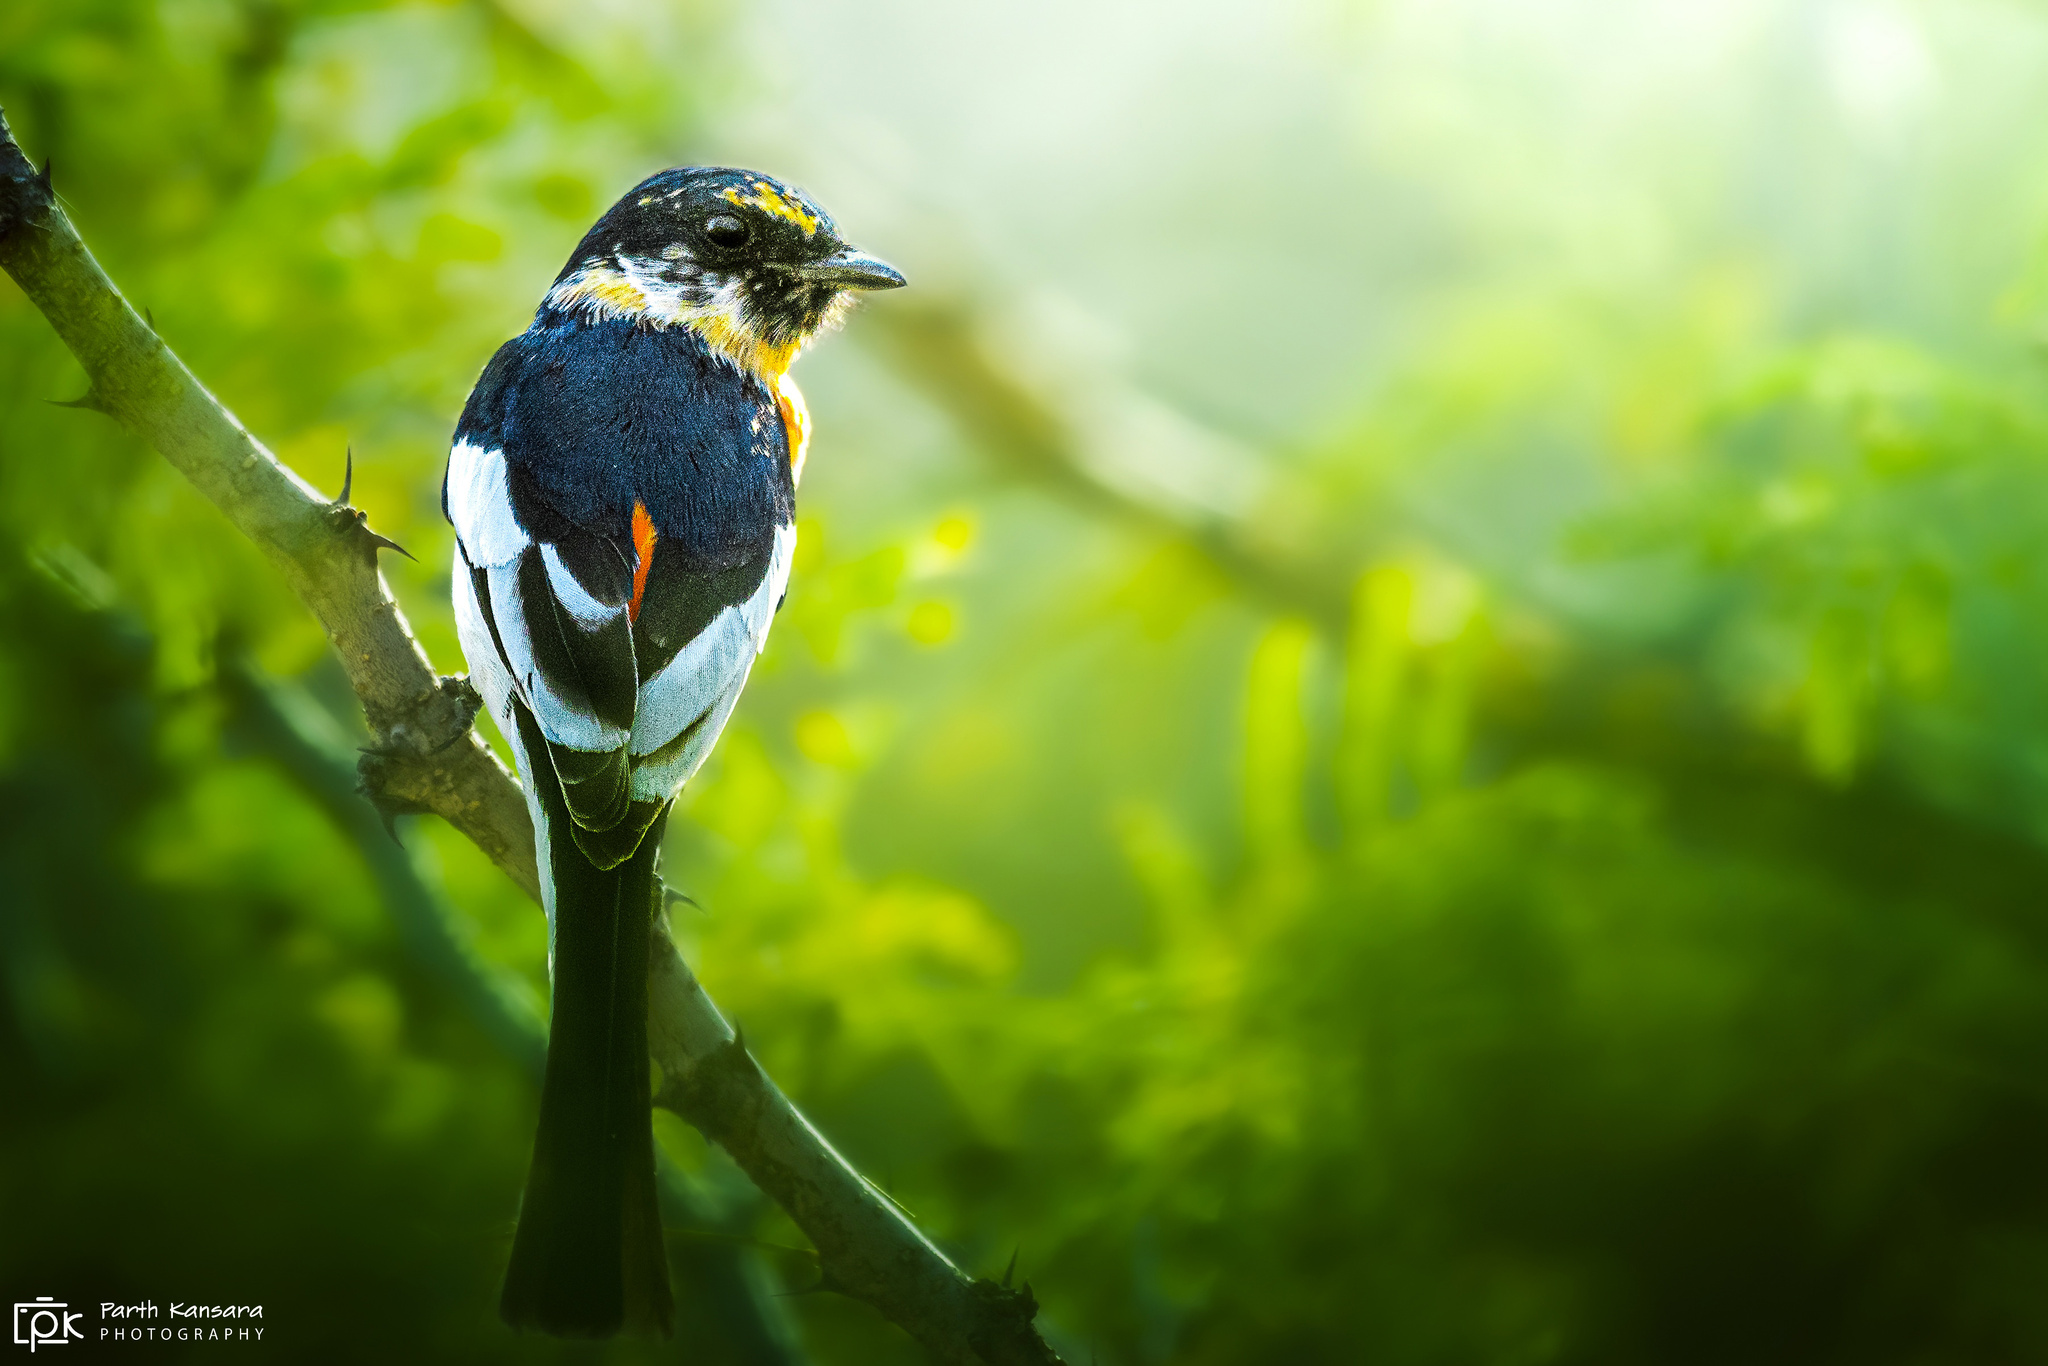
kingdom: Animalia
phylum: Chordata
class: Aves
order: Passeriformes
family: Campephagidae
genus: Pericrocotus
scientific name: Pericrocotus erythropygius
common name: White-bellied minivet
